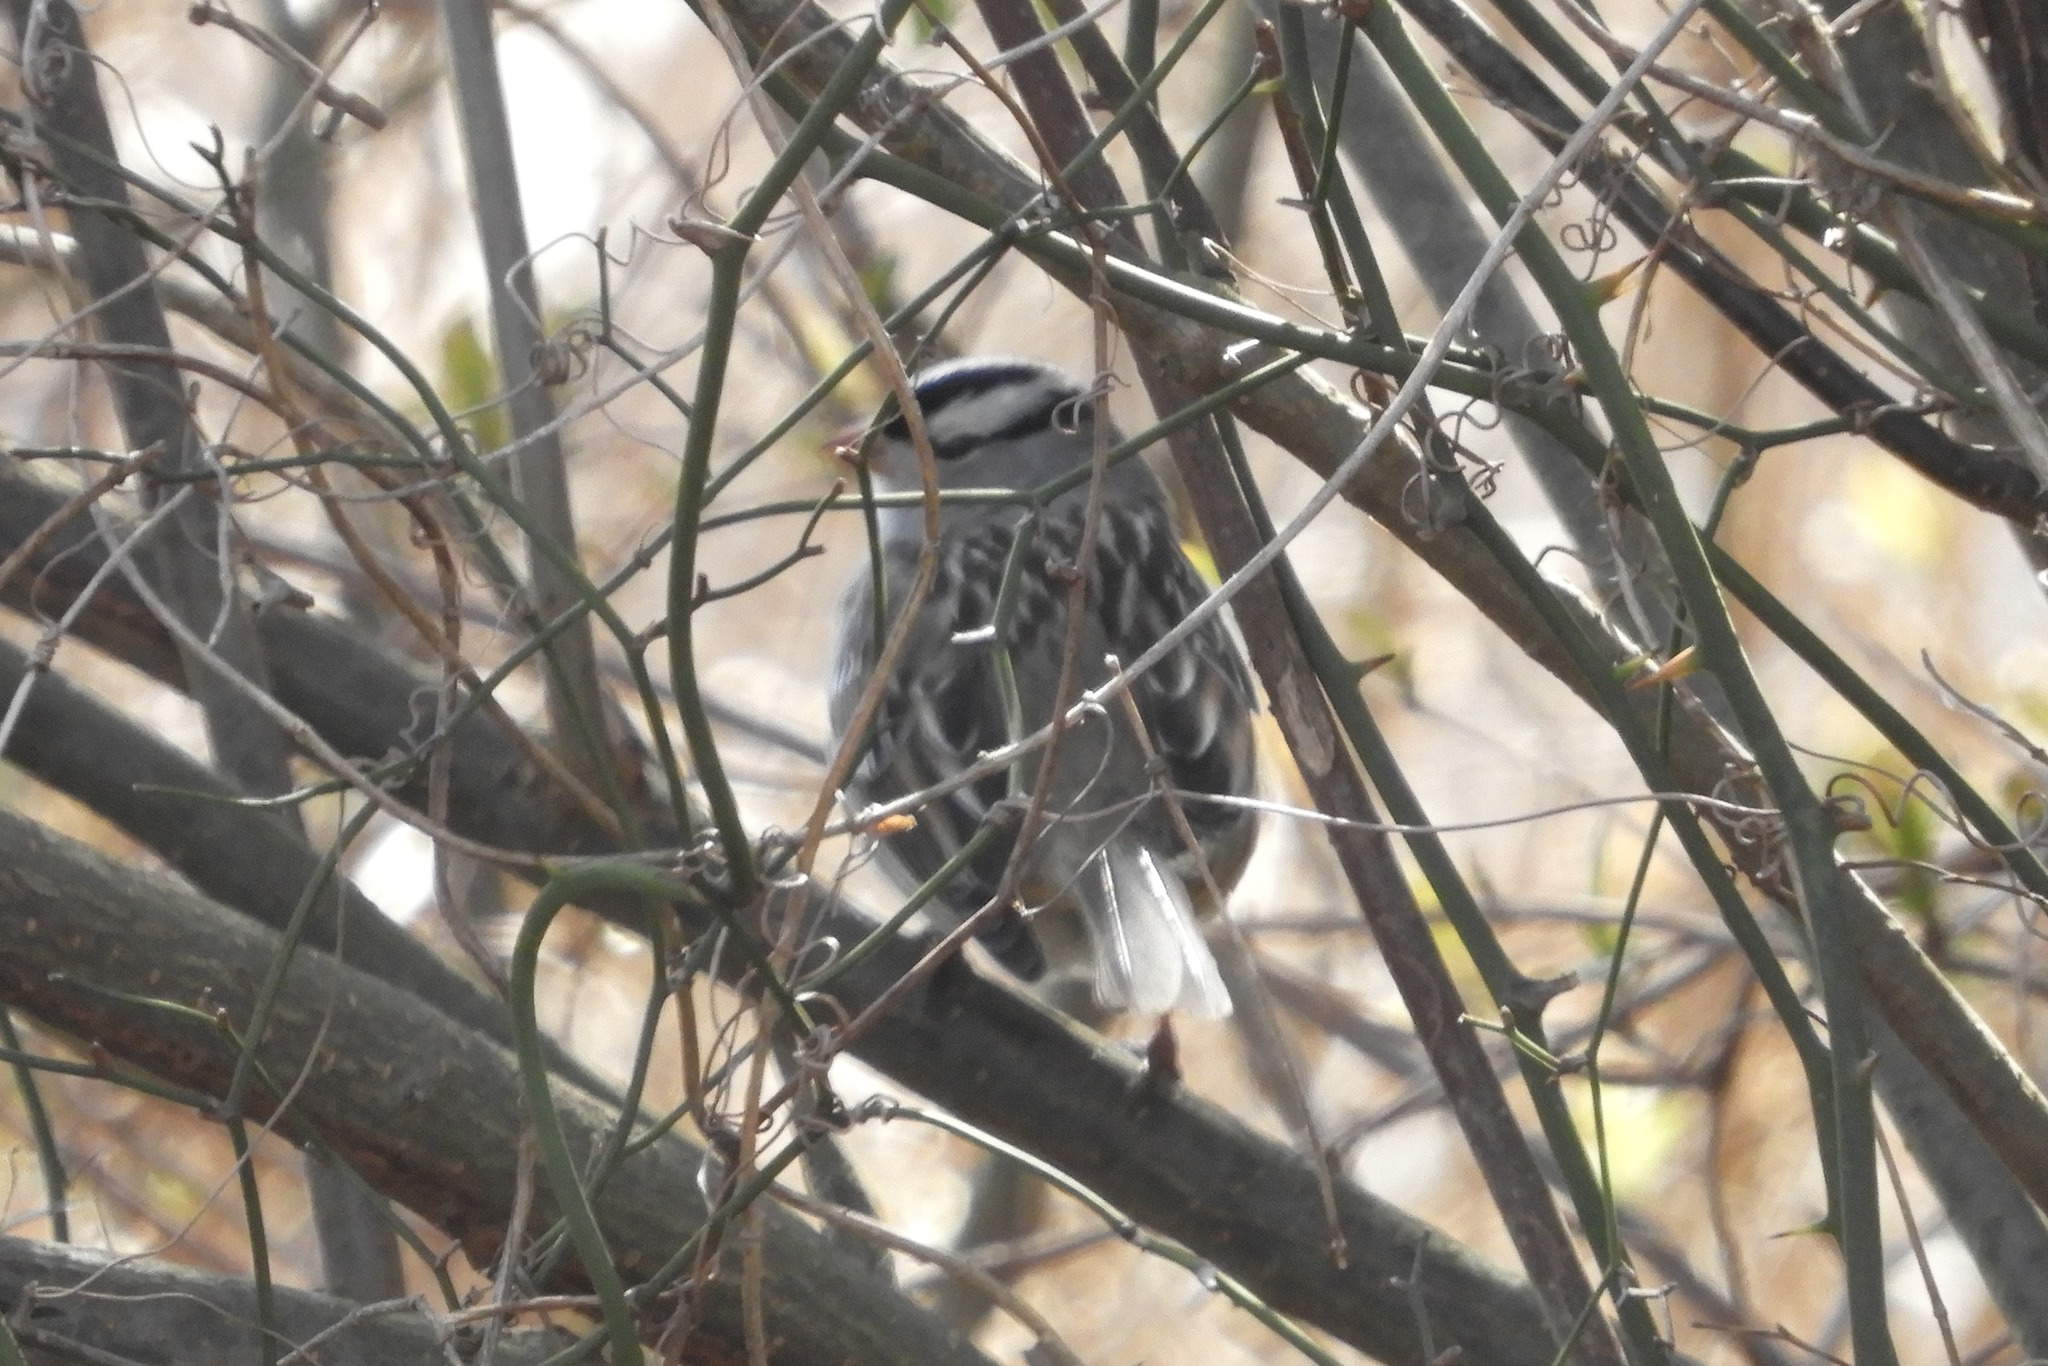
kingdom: Animalia
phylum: Chordata
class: Aves
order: Passeriformes
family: Passerellidae
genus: Zonotrichia
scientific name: Zonotrichia leucophrys
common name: White-crowned sparrow
